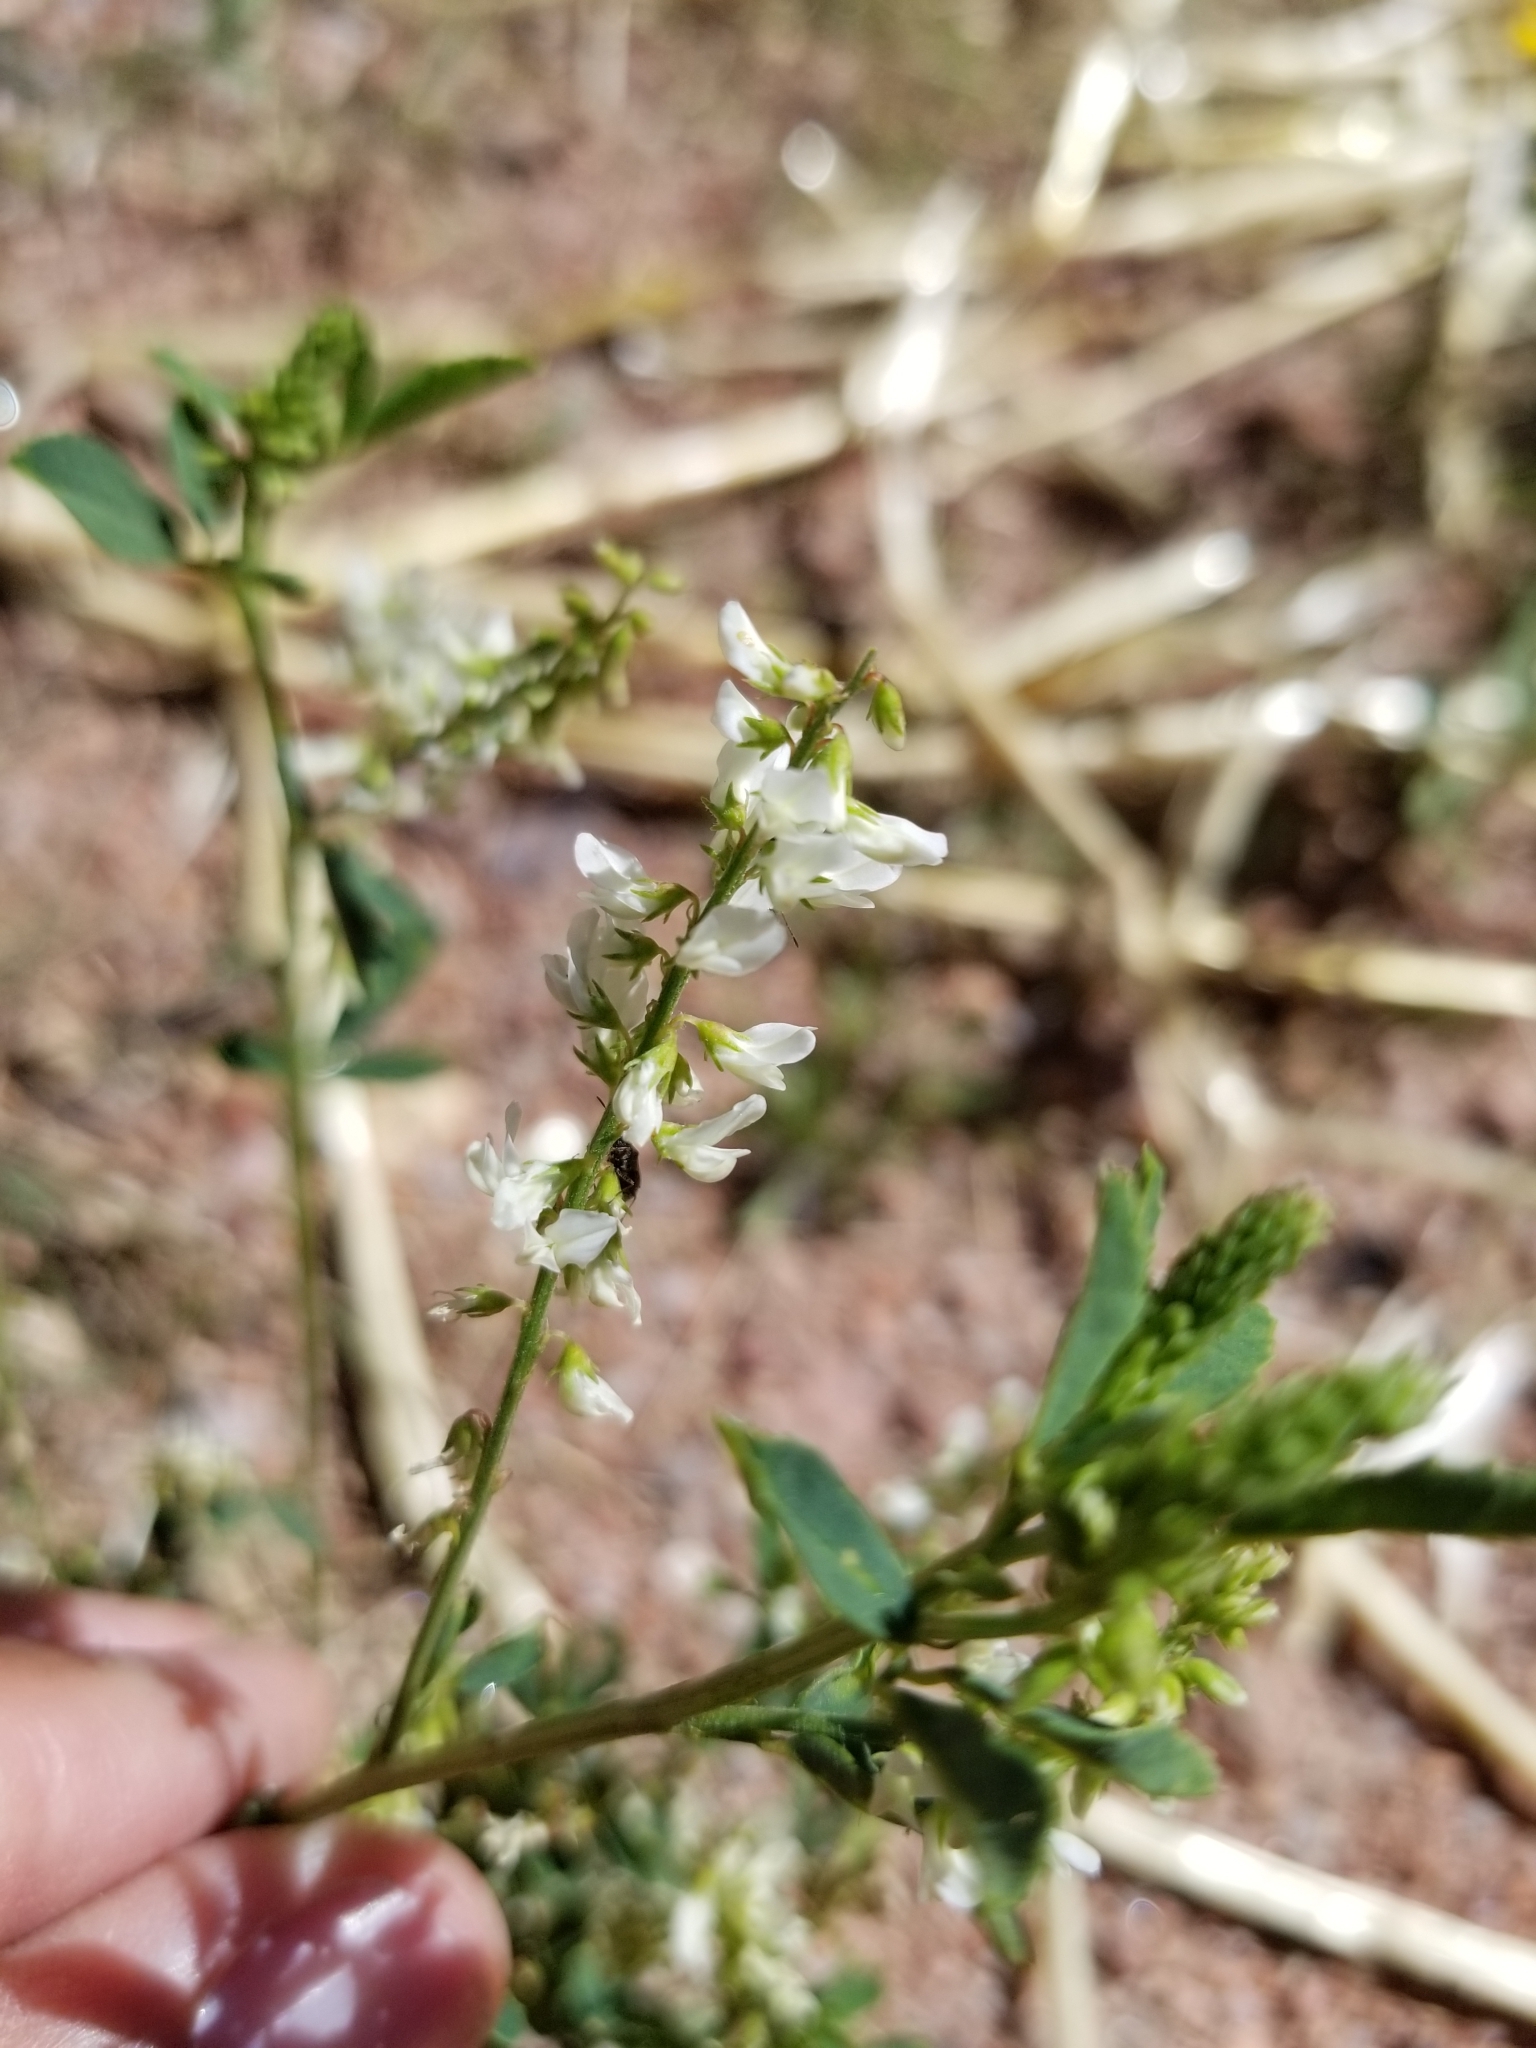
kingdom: Plantae
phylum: Tracheophyta
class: Magnoliopsida
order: Fabales
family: Fabaceae
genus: Melilotus
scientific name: Melilotus albus
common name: White melilot
